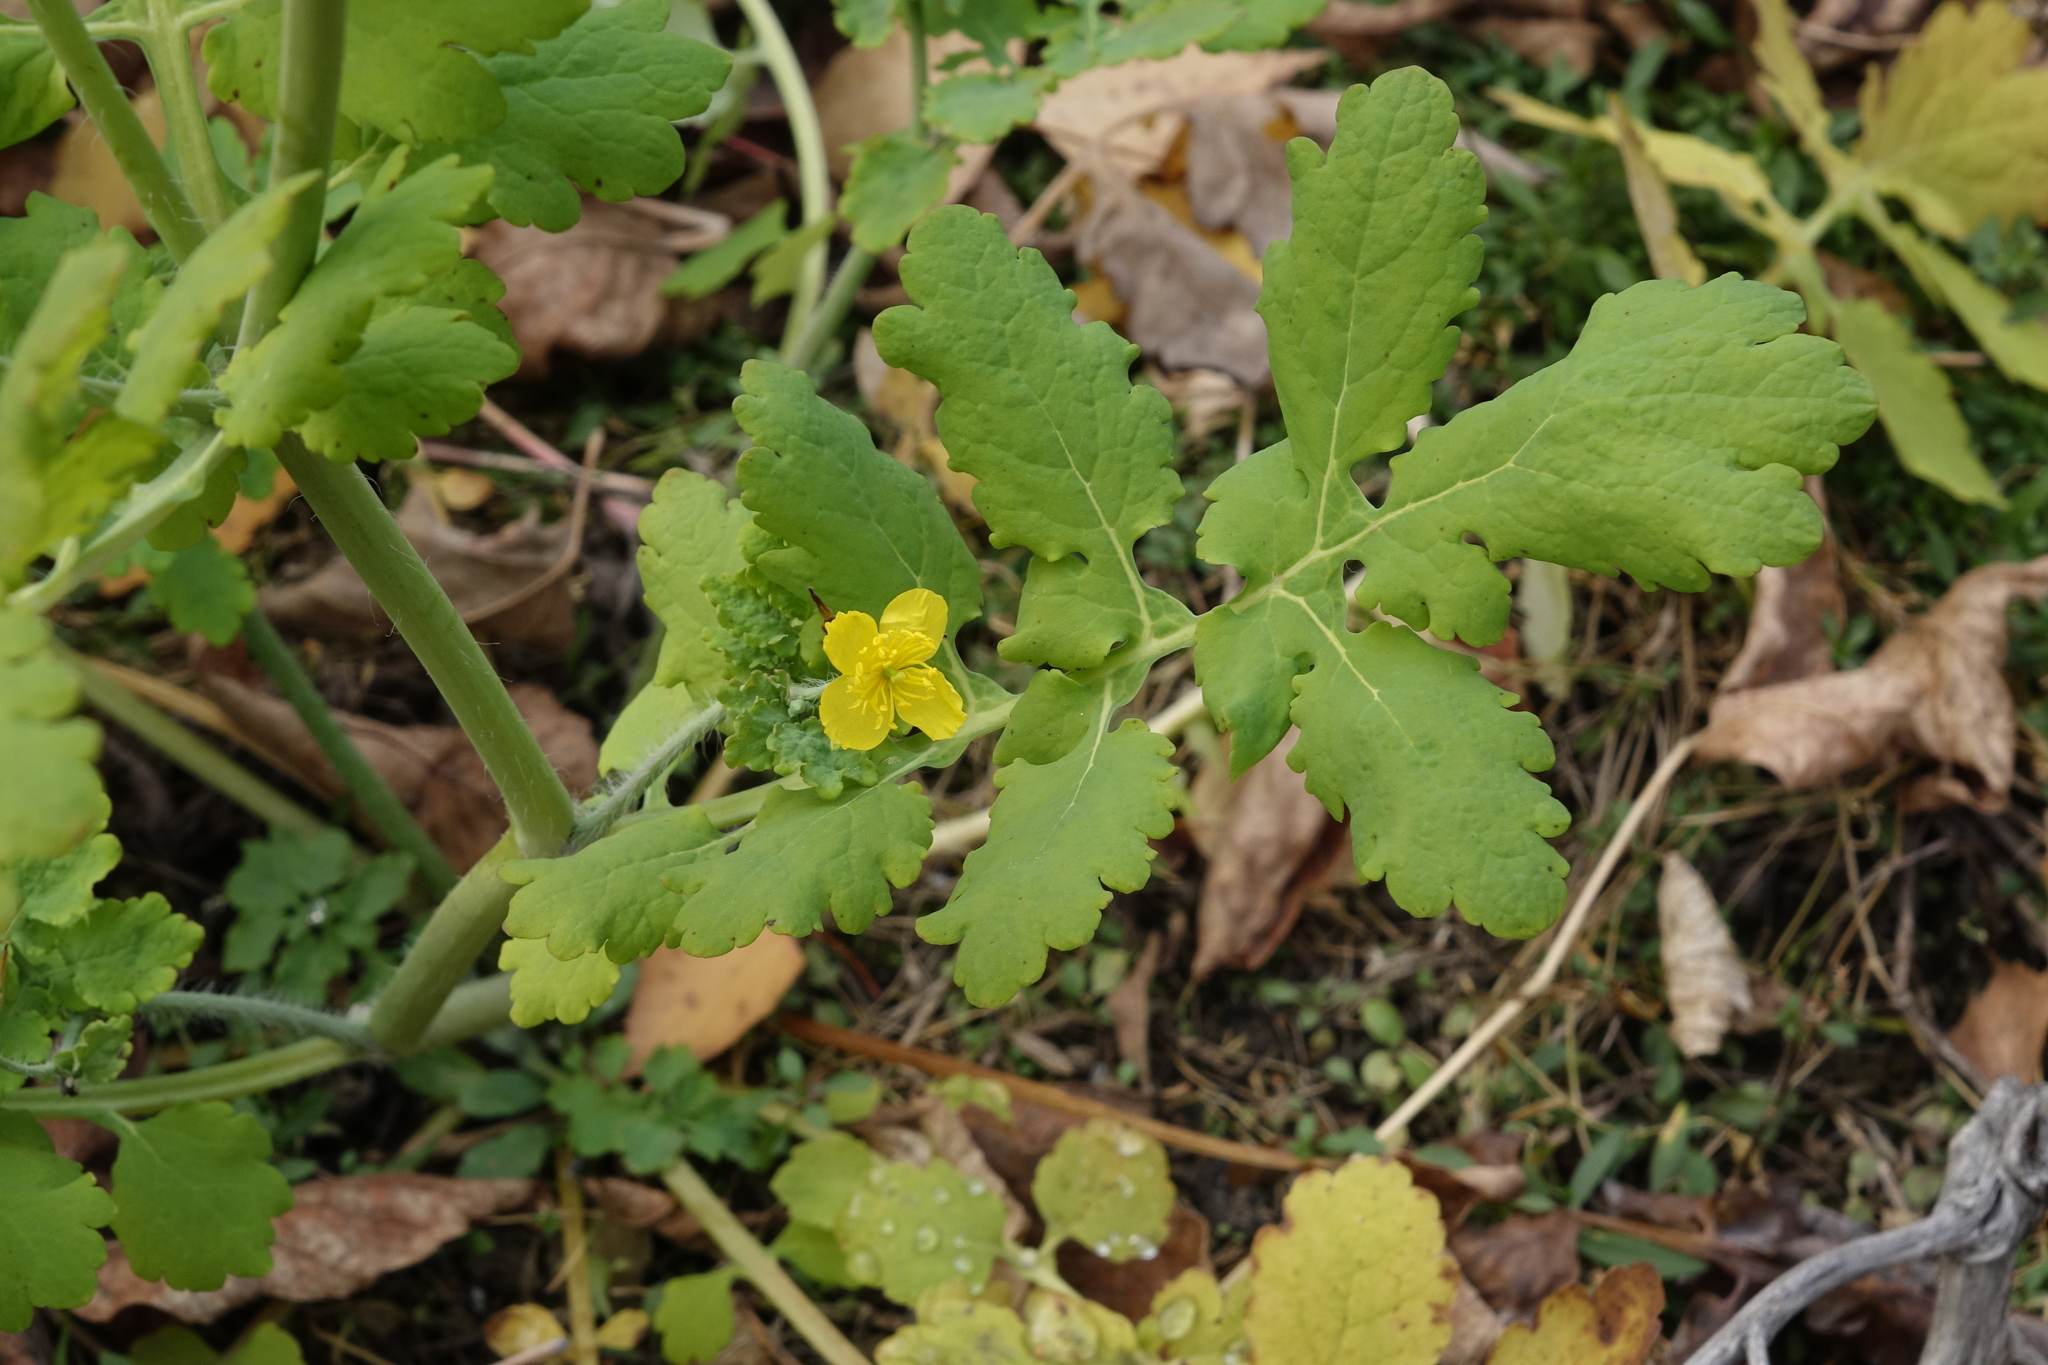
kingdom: Plantae
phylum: Tracheophyta
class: Magnoliopsida
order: Ranunculales
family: Papaveraceae
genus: Chelidonium
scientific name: Chelidonium majus
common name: Greater celandine
